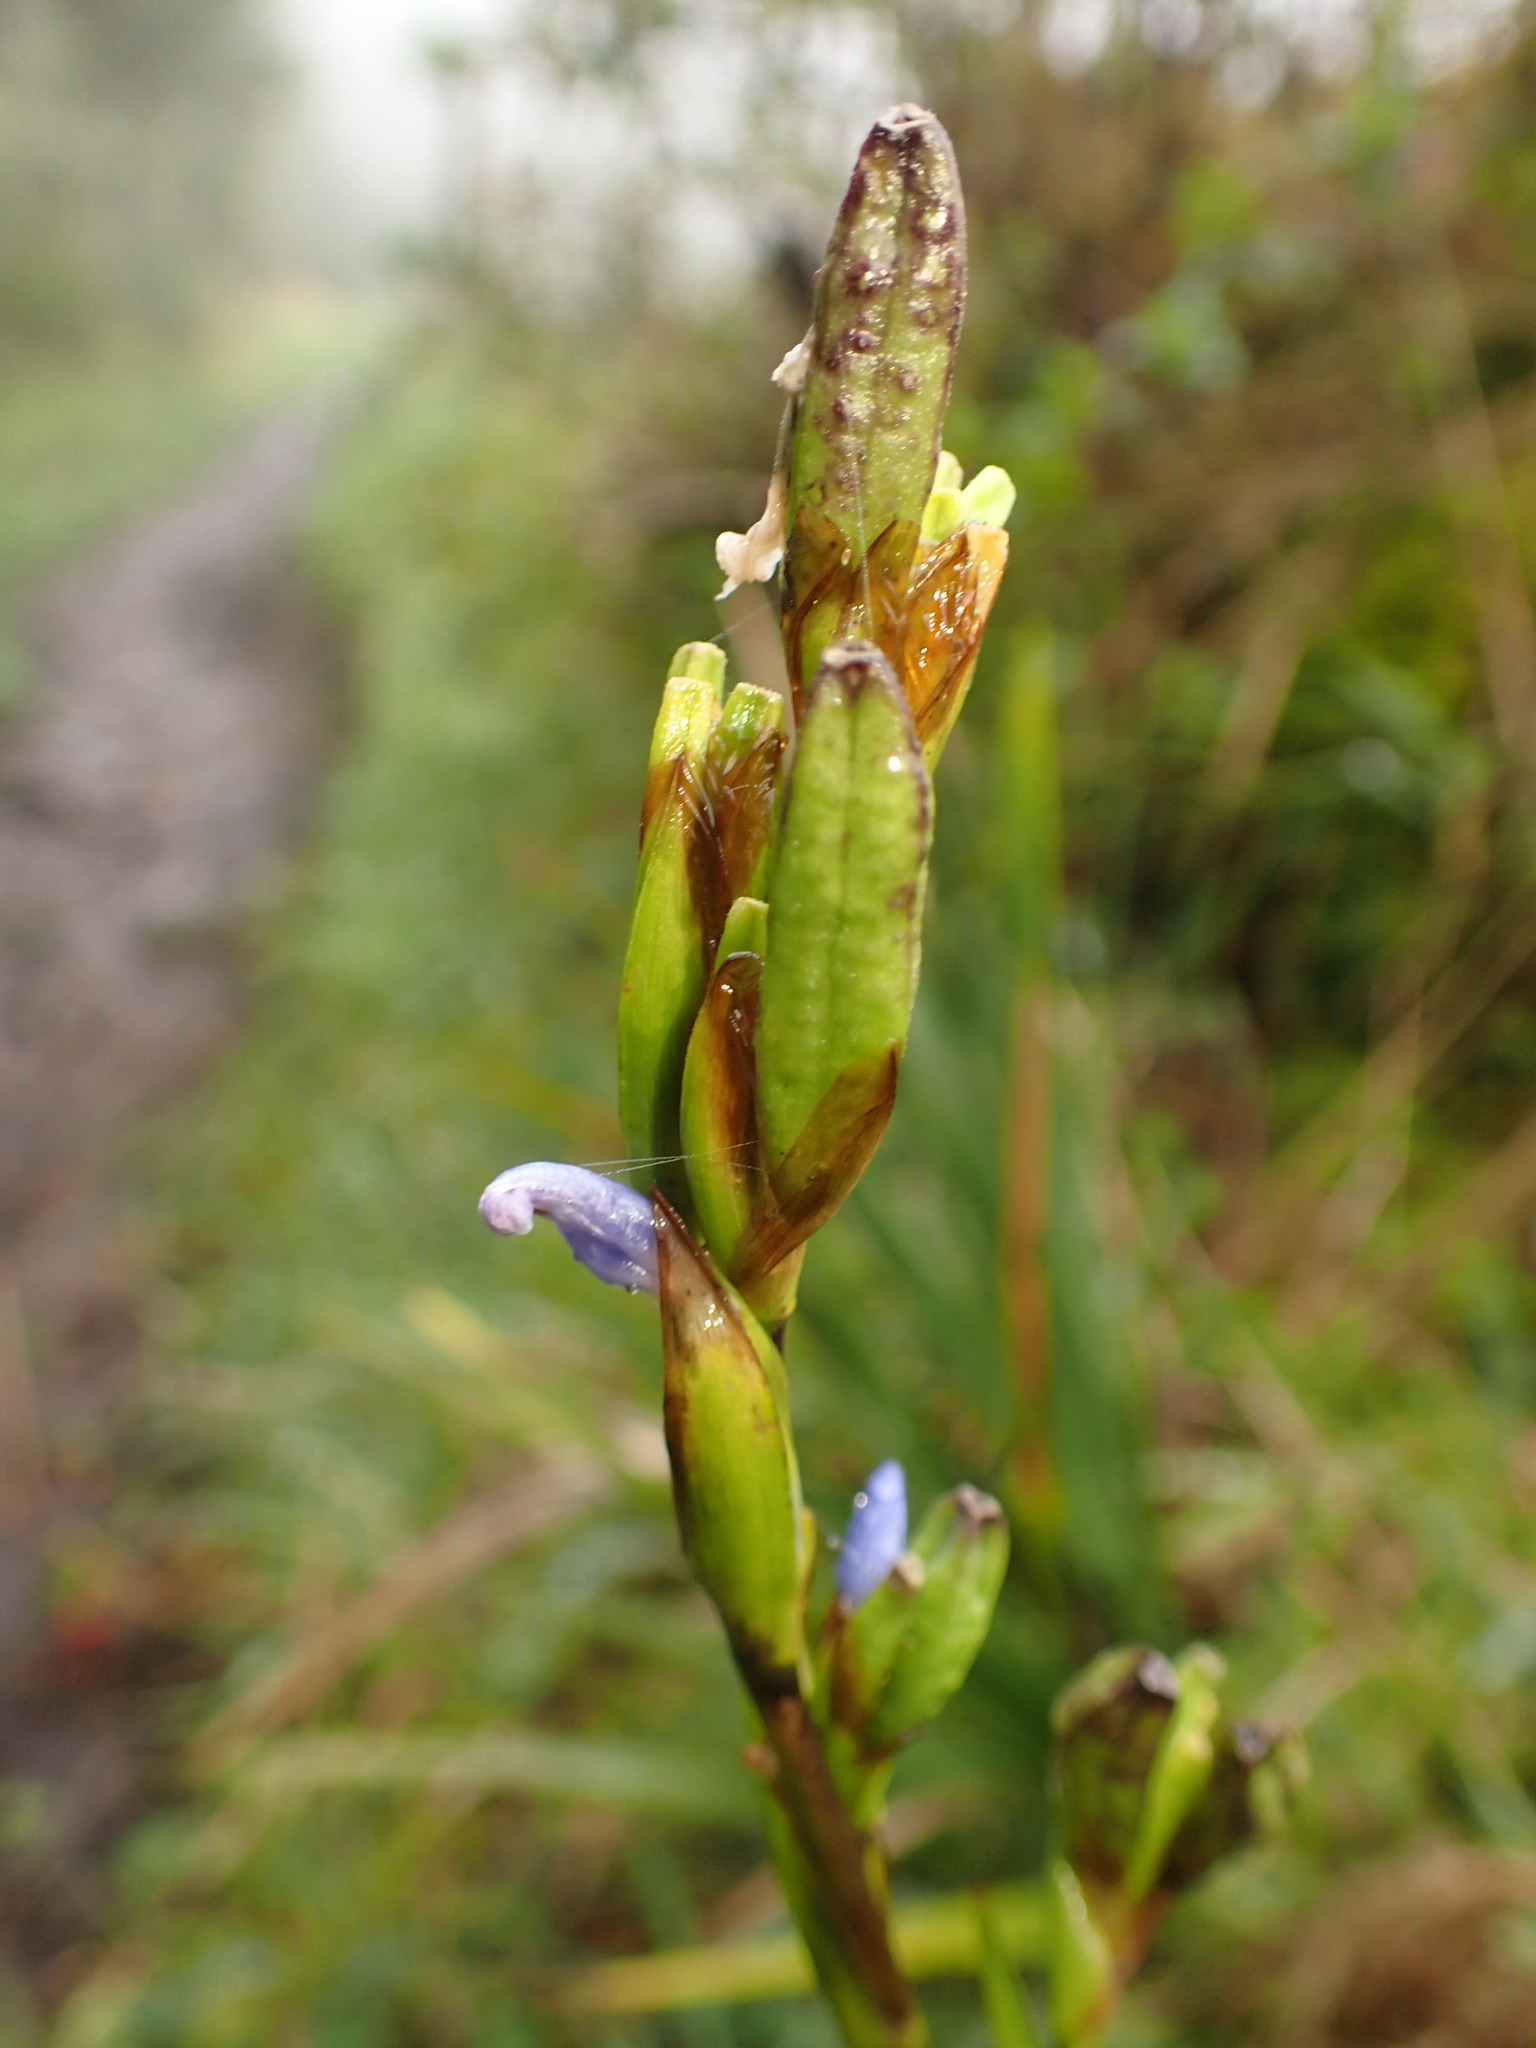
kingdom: Plantae
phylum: Tracheophyta
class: Liliopsida
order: Asparagales
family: Iridaceae
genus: Orthrosanthus
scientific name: Orthrosanthus chimboracensis
